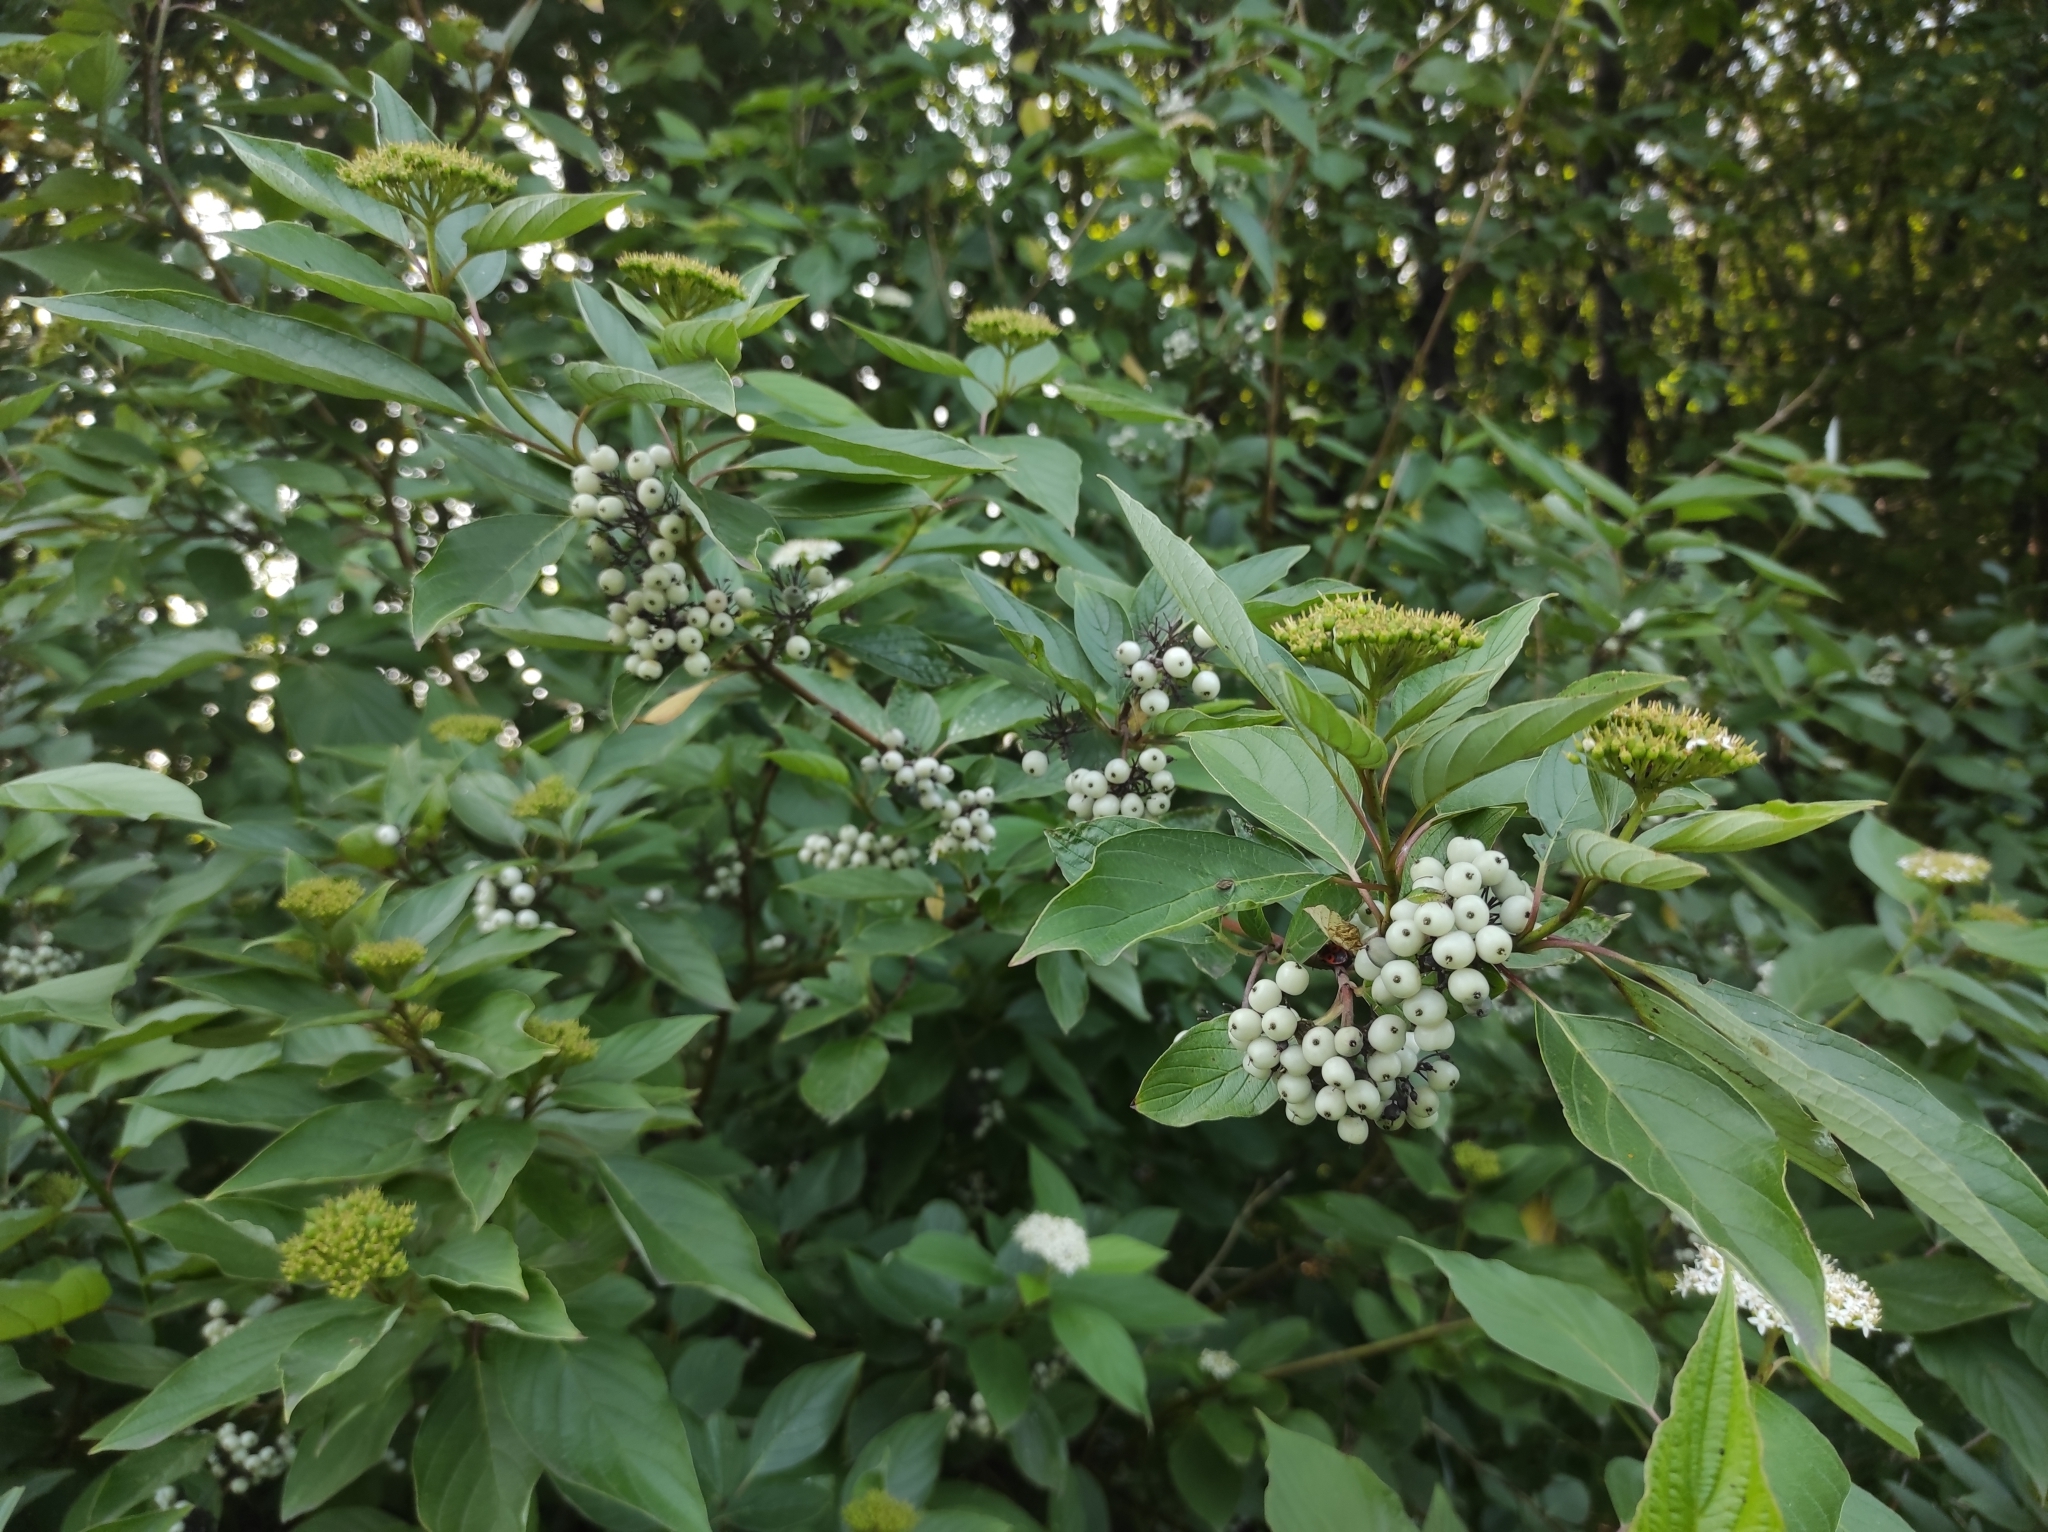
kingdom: Plantae
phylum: Tracheophyta
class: Magnoliopsida
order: Cornales
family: Cornaceae
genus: Cornus
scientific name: Cornus alba
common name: White dogwood
